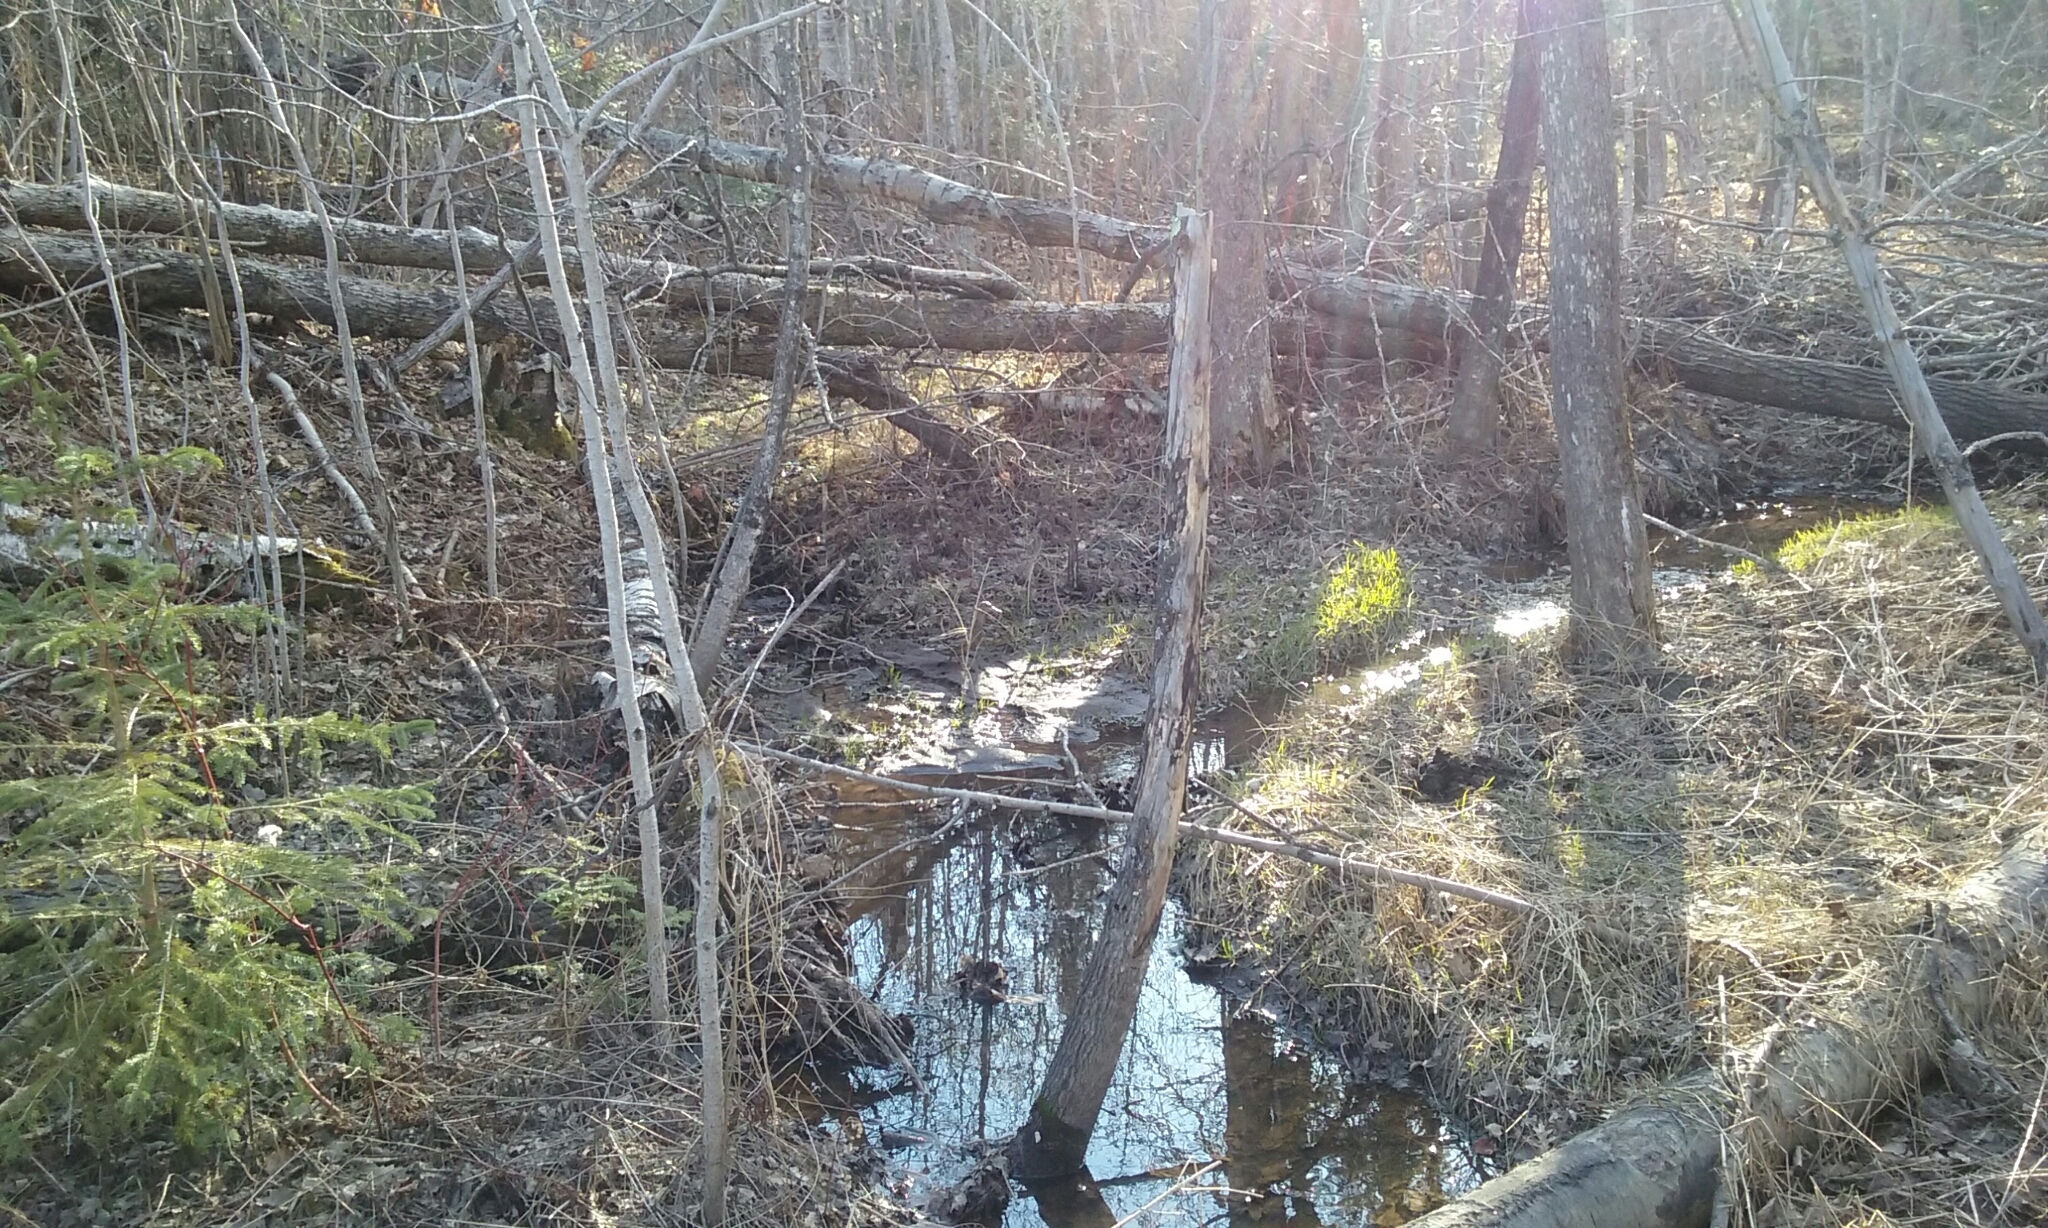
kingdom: Animalia
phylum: Chordata
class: Aves
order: Anseriformes
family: Anatidae
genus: Anas
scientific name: Anas platyrhynchos
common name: Mallard
